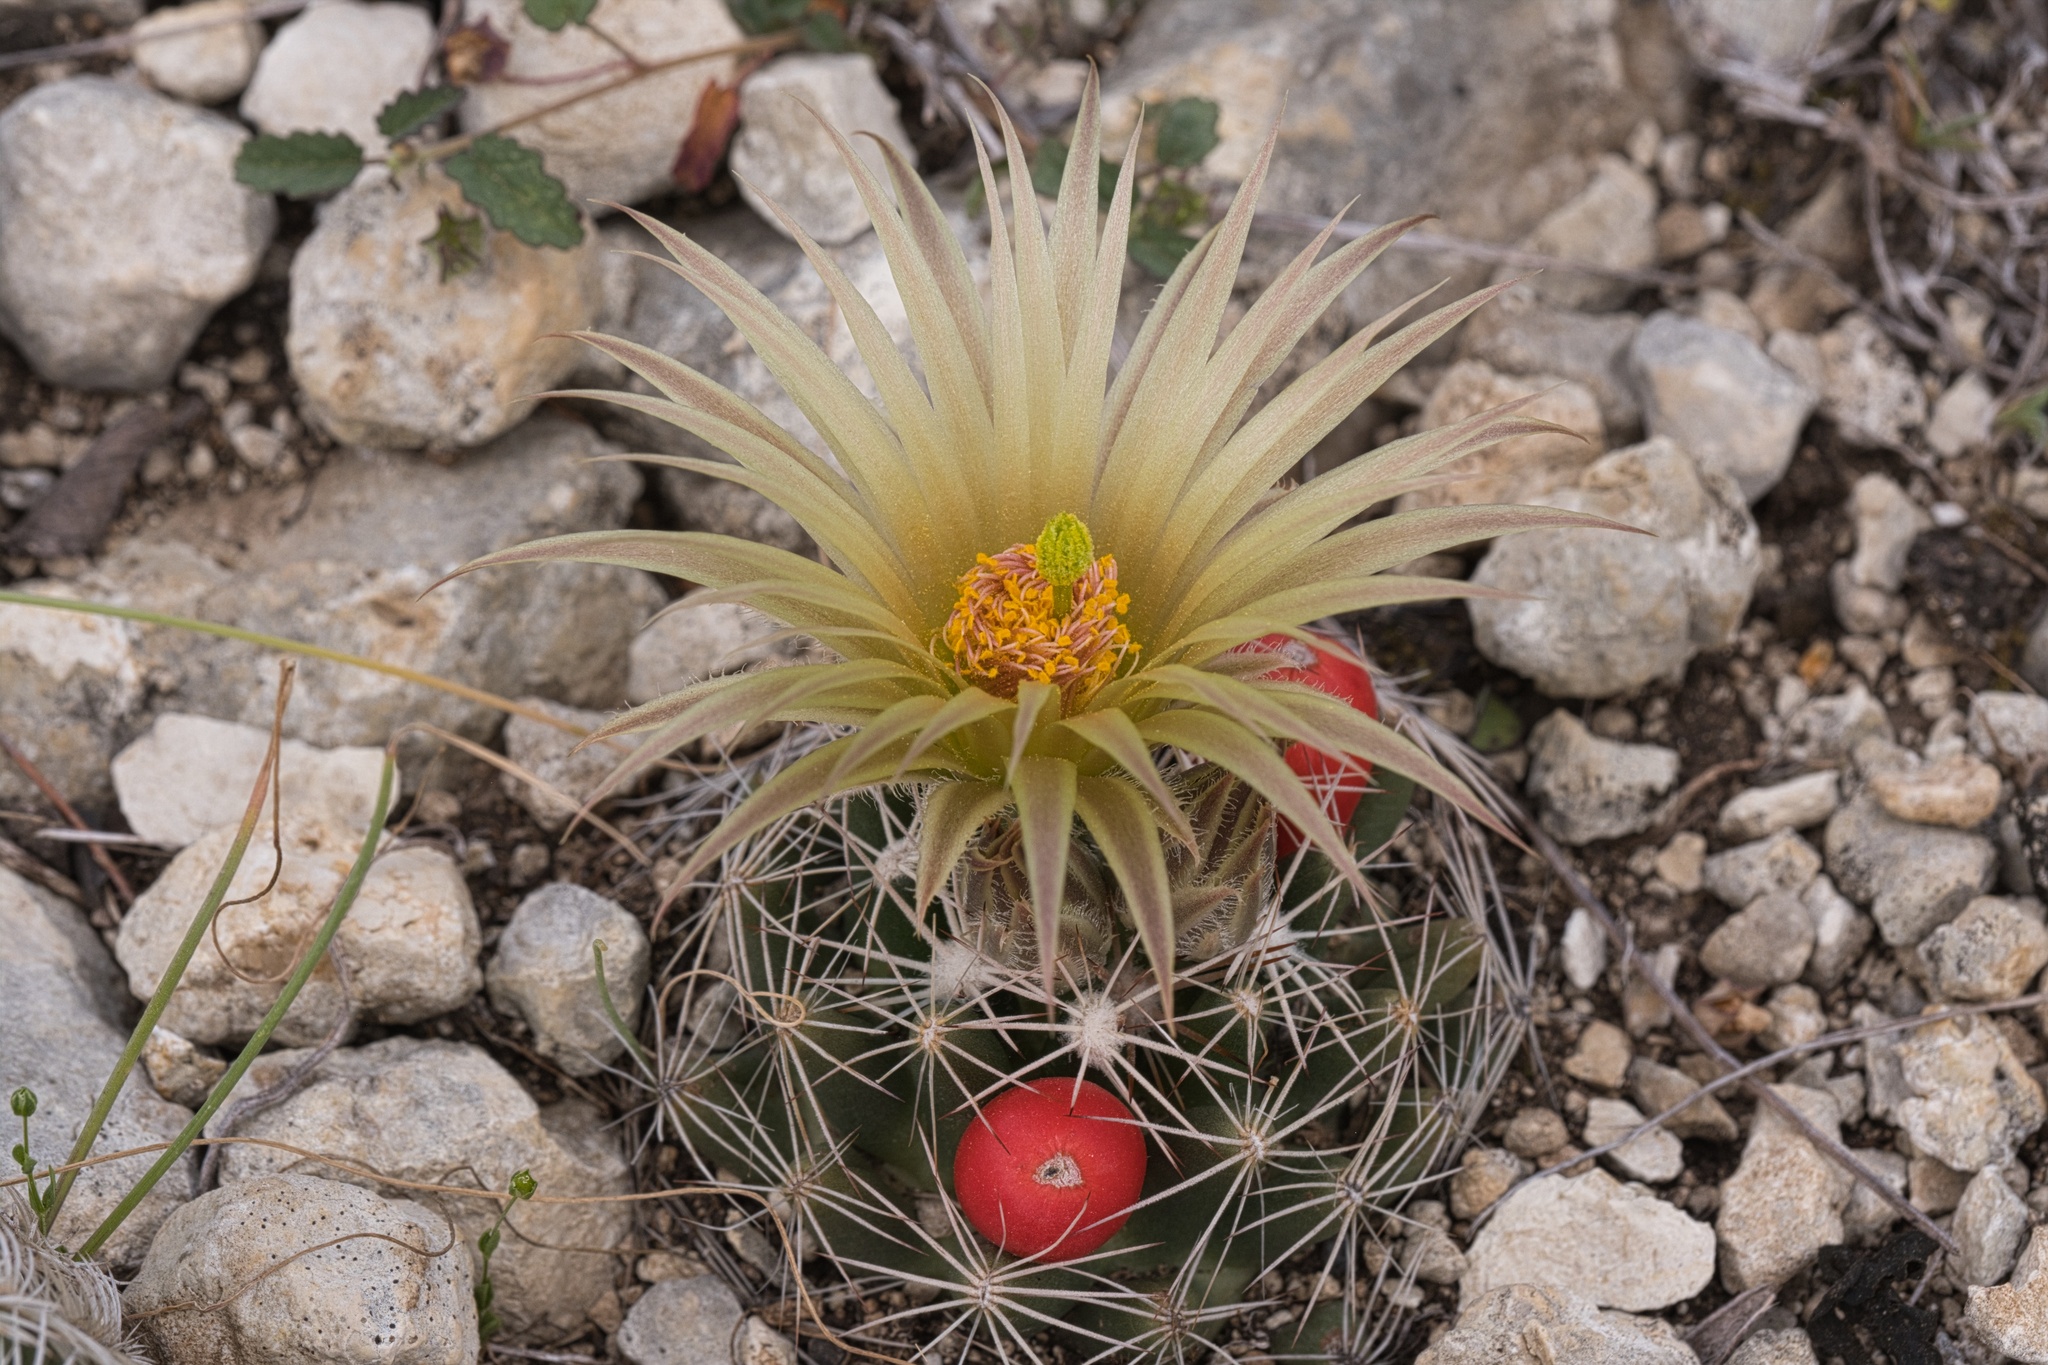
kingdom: Plantae
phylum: Tracheophyta
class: Magnoliopsida
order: Caryophyllales
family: Cactaceae
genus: Pelecyphora
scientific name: Pelecyphora missouriensis
